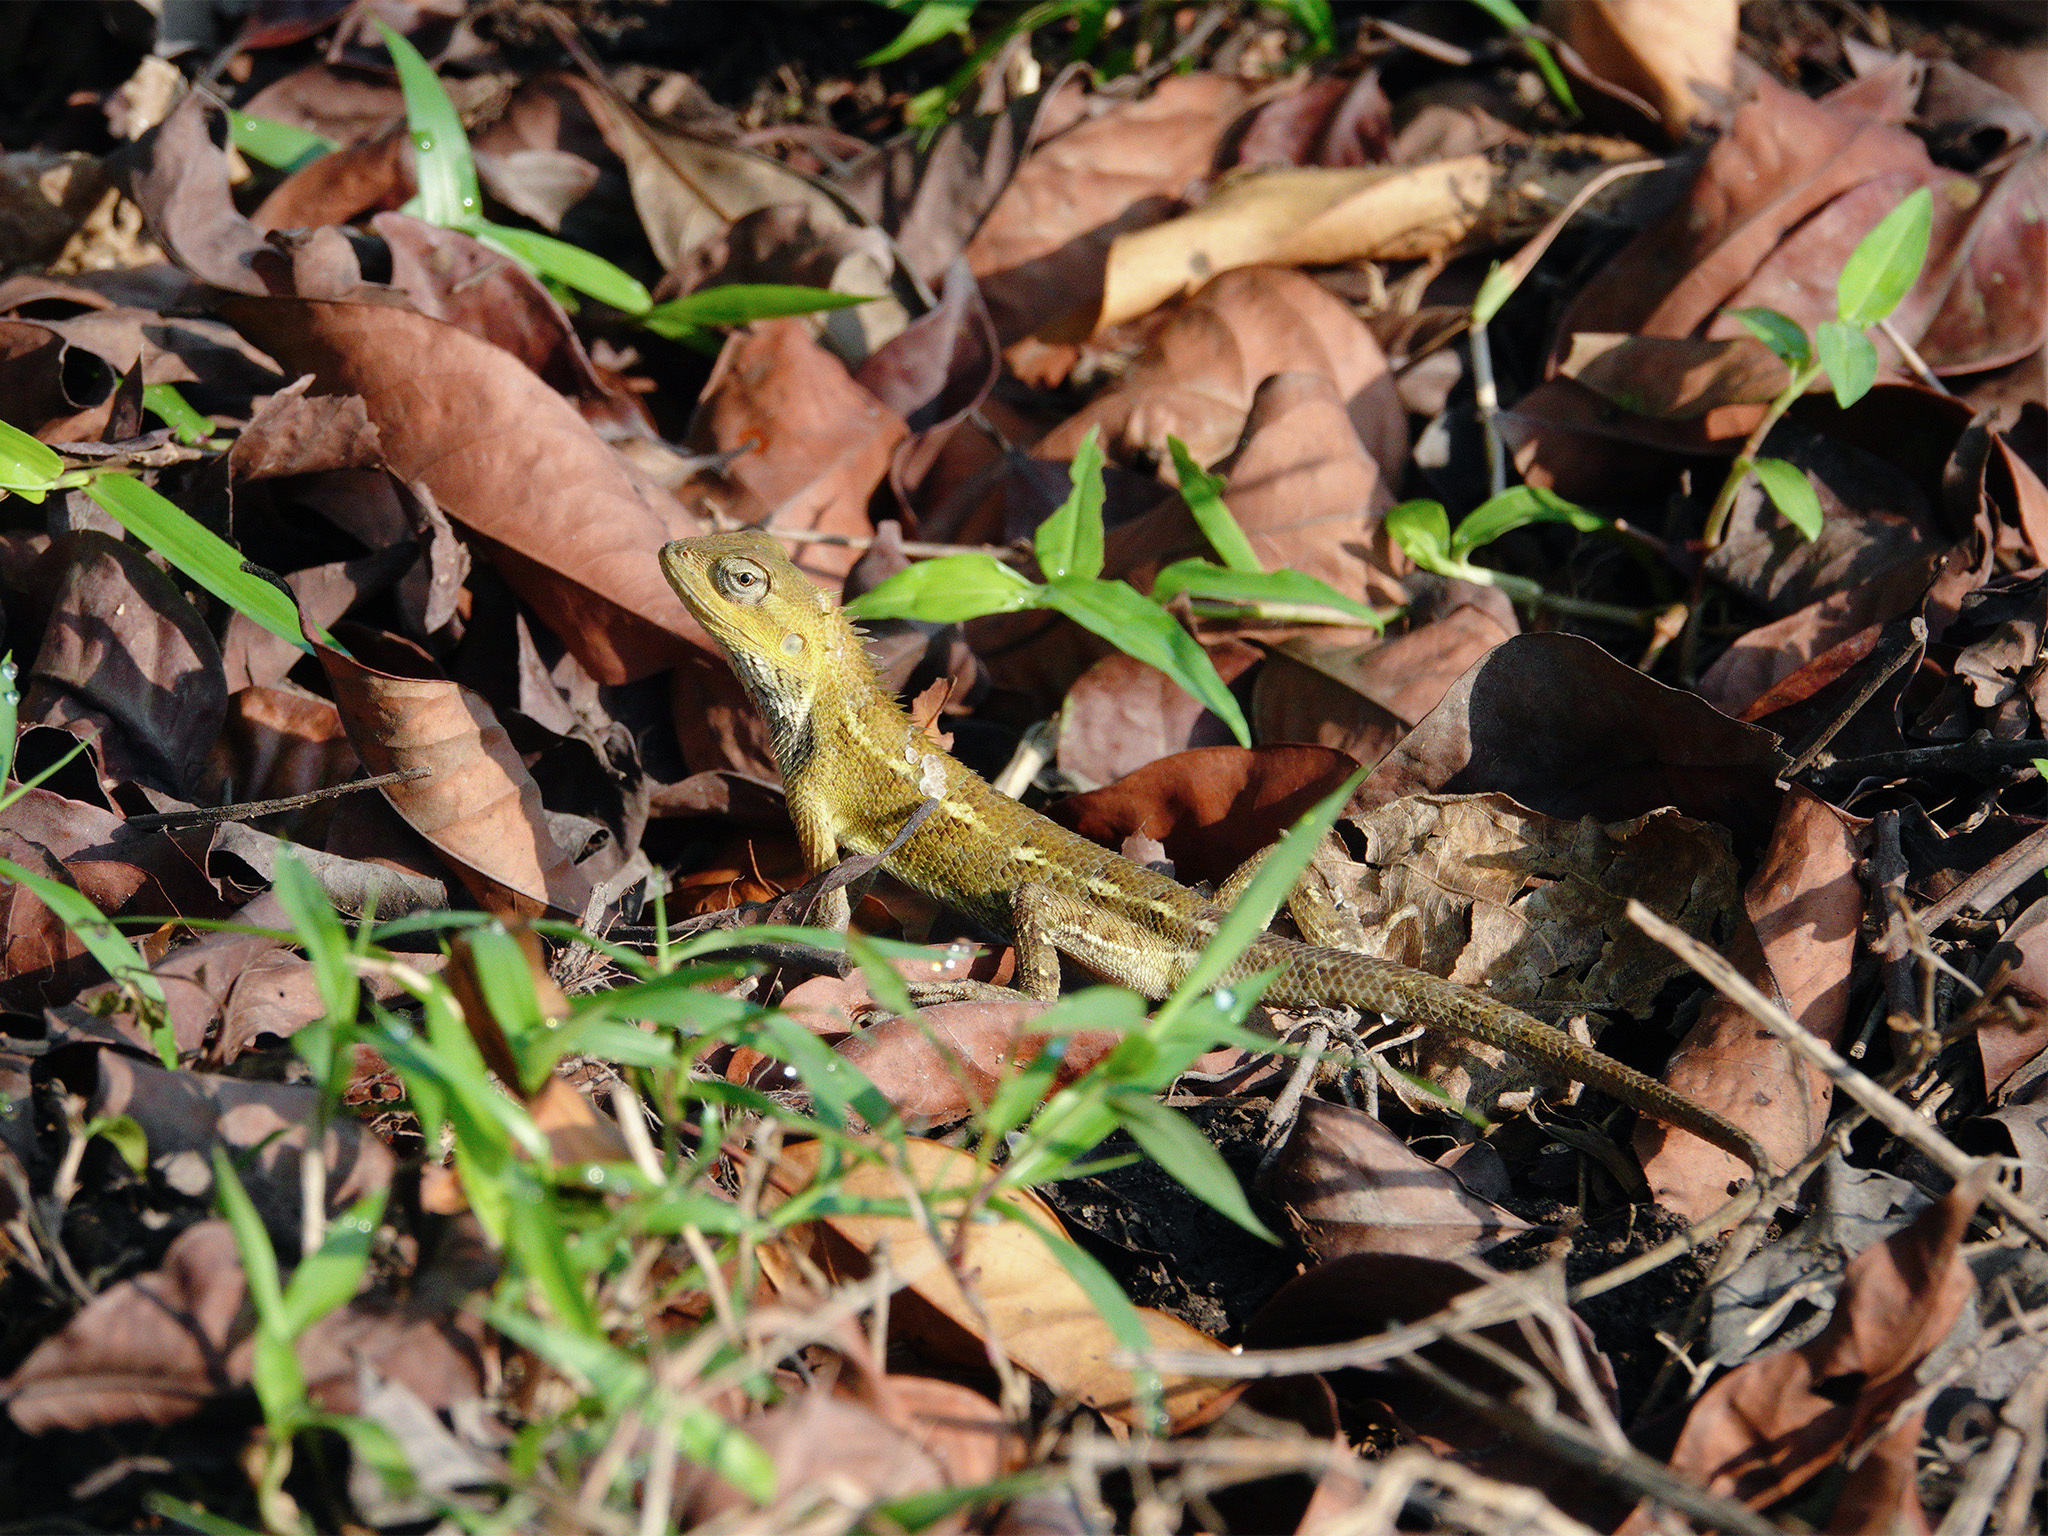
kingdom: Animalia
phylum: Chordata
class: Squamata
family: Agamidae
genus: Calotes
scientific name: Calotes versicolor
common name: Oriental garden lizard
